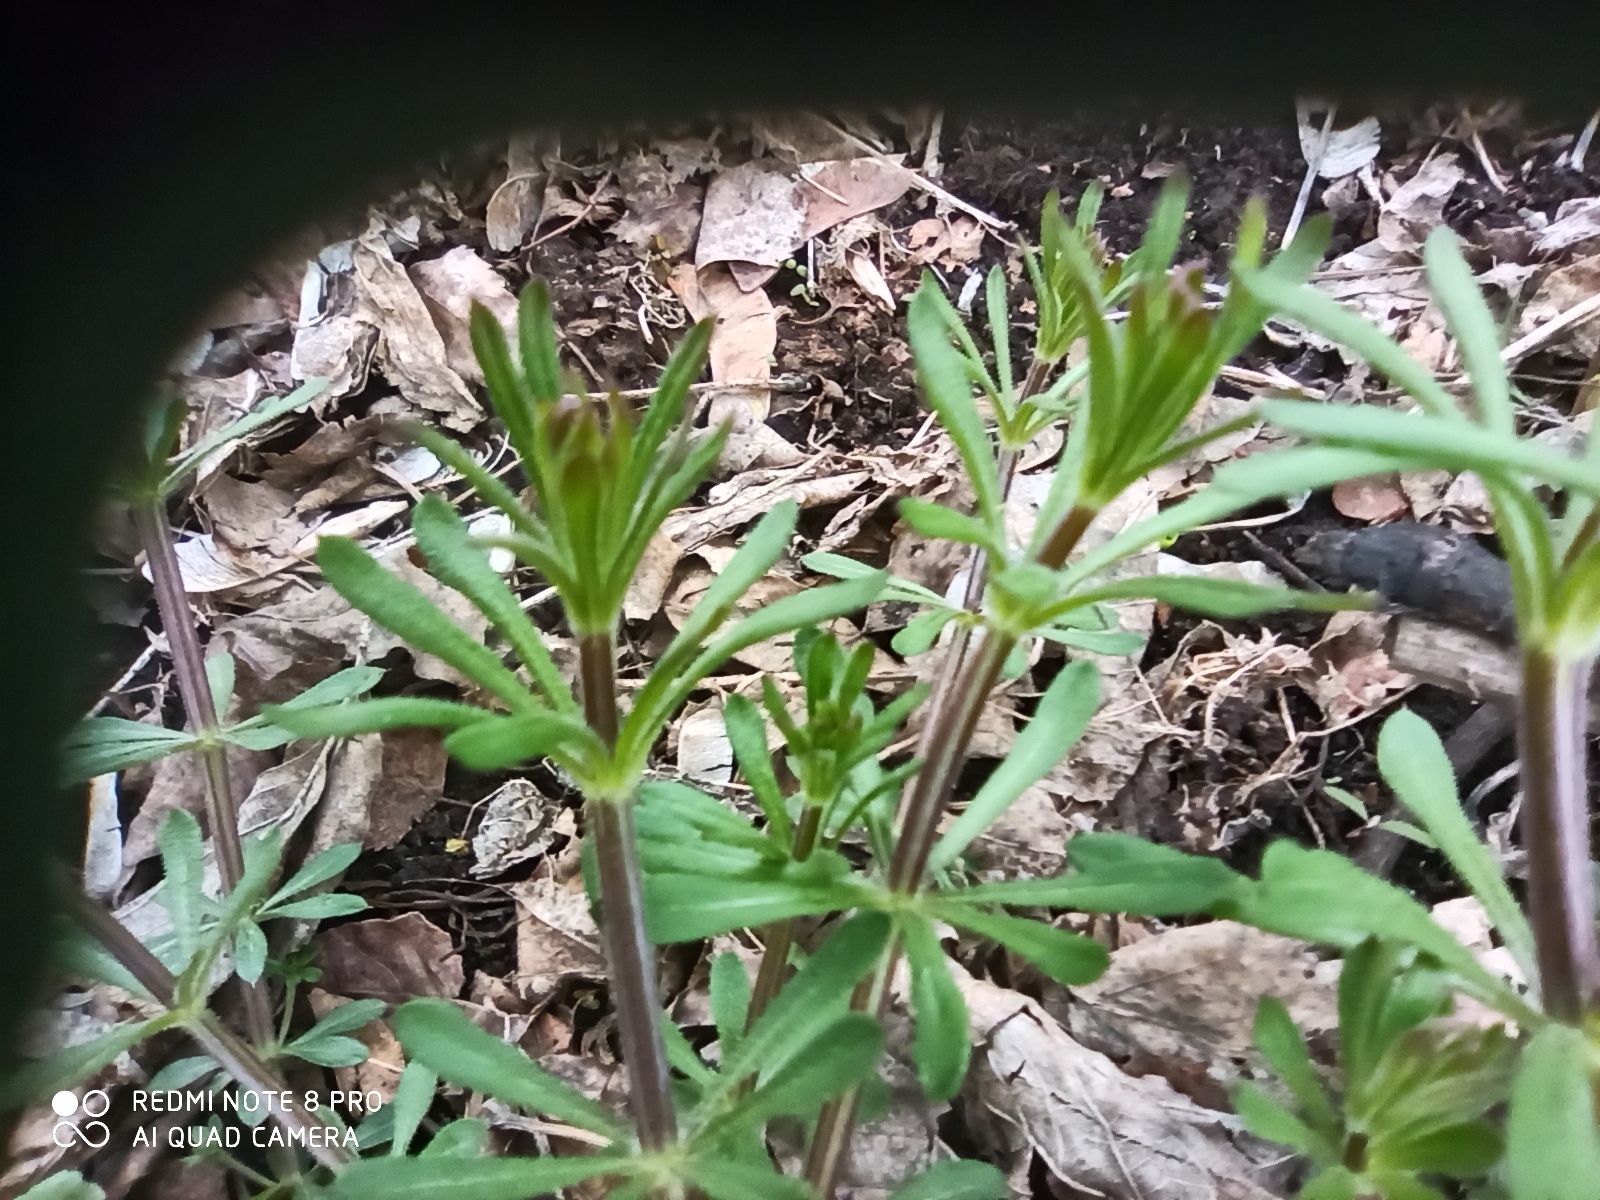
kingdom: Plantae
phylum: Tracheophyta
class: Magnoliopsida
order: Gentianales
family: Rubiaceae
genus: Galium
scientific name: Galium aparine
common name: Cleavers
